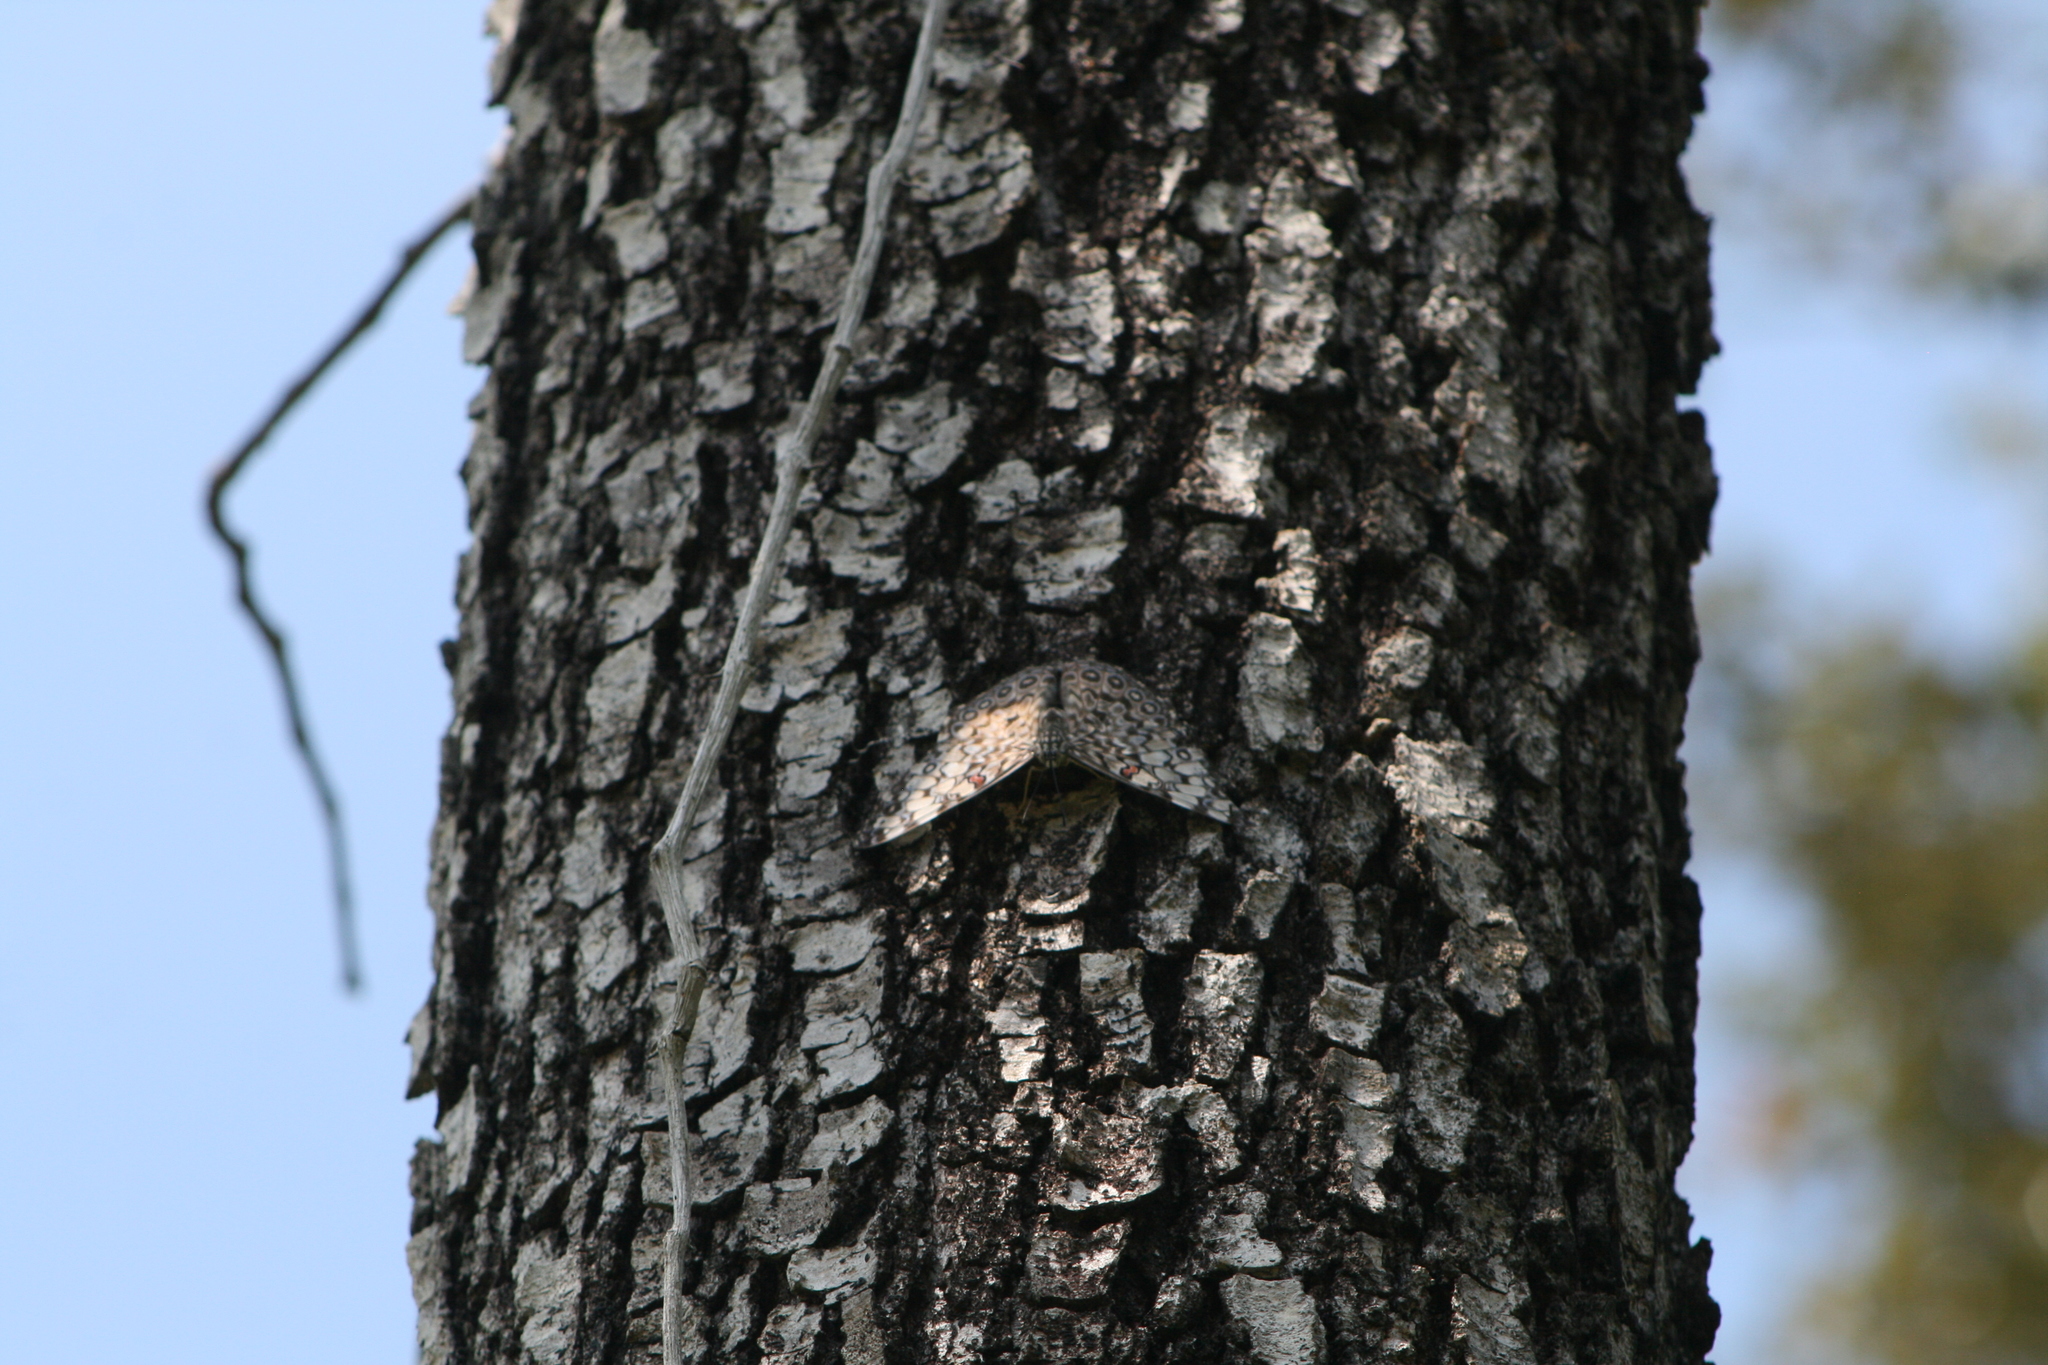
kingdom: Animalia
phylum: Arthropoda
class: Insecta
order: Lepidoptera
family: Nymphalidae
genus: Hamadryas
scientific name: Hamadryas feronia
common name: Variable cracker
